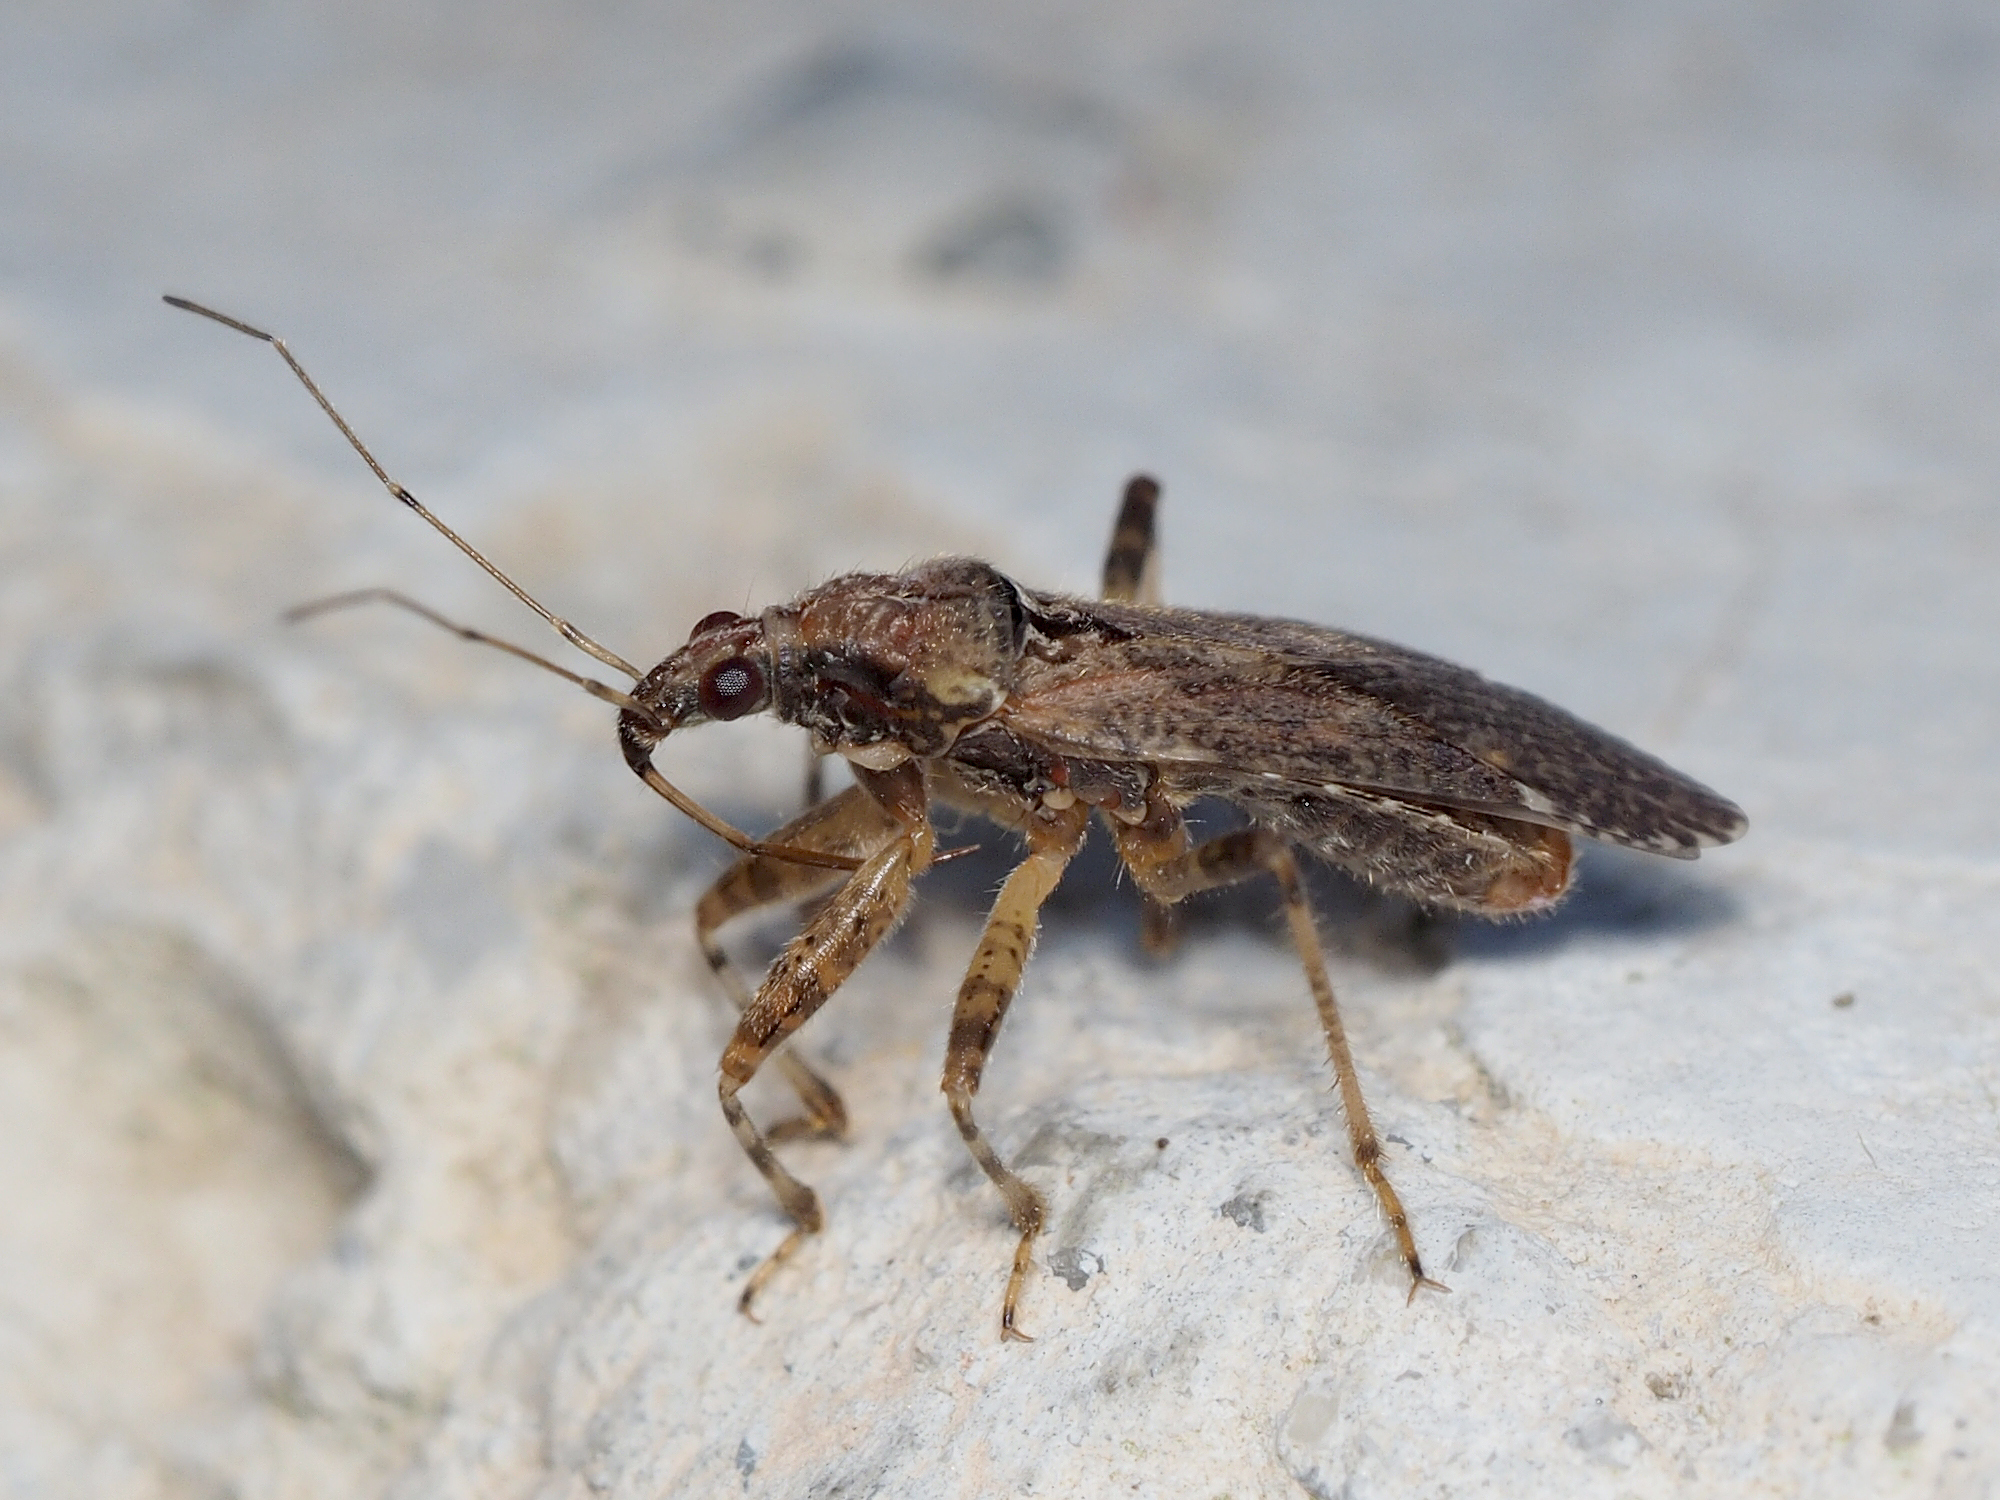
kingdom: Animalia
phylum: Arthropoda
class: Insecta
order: Hemiptera
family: Nabidae
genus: Himacerus
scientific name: Himacerus mirmicoides
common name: Ant damsel bug
